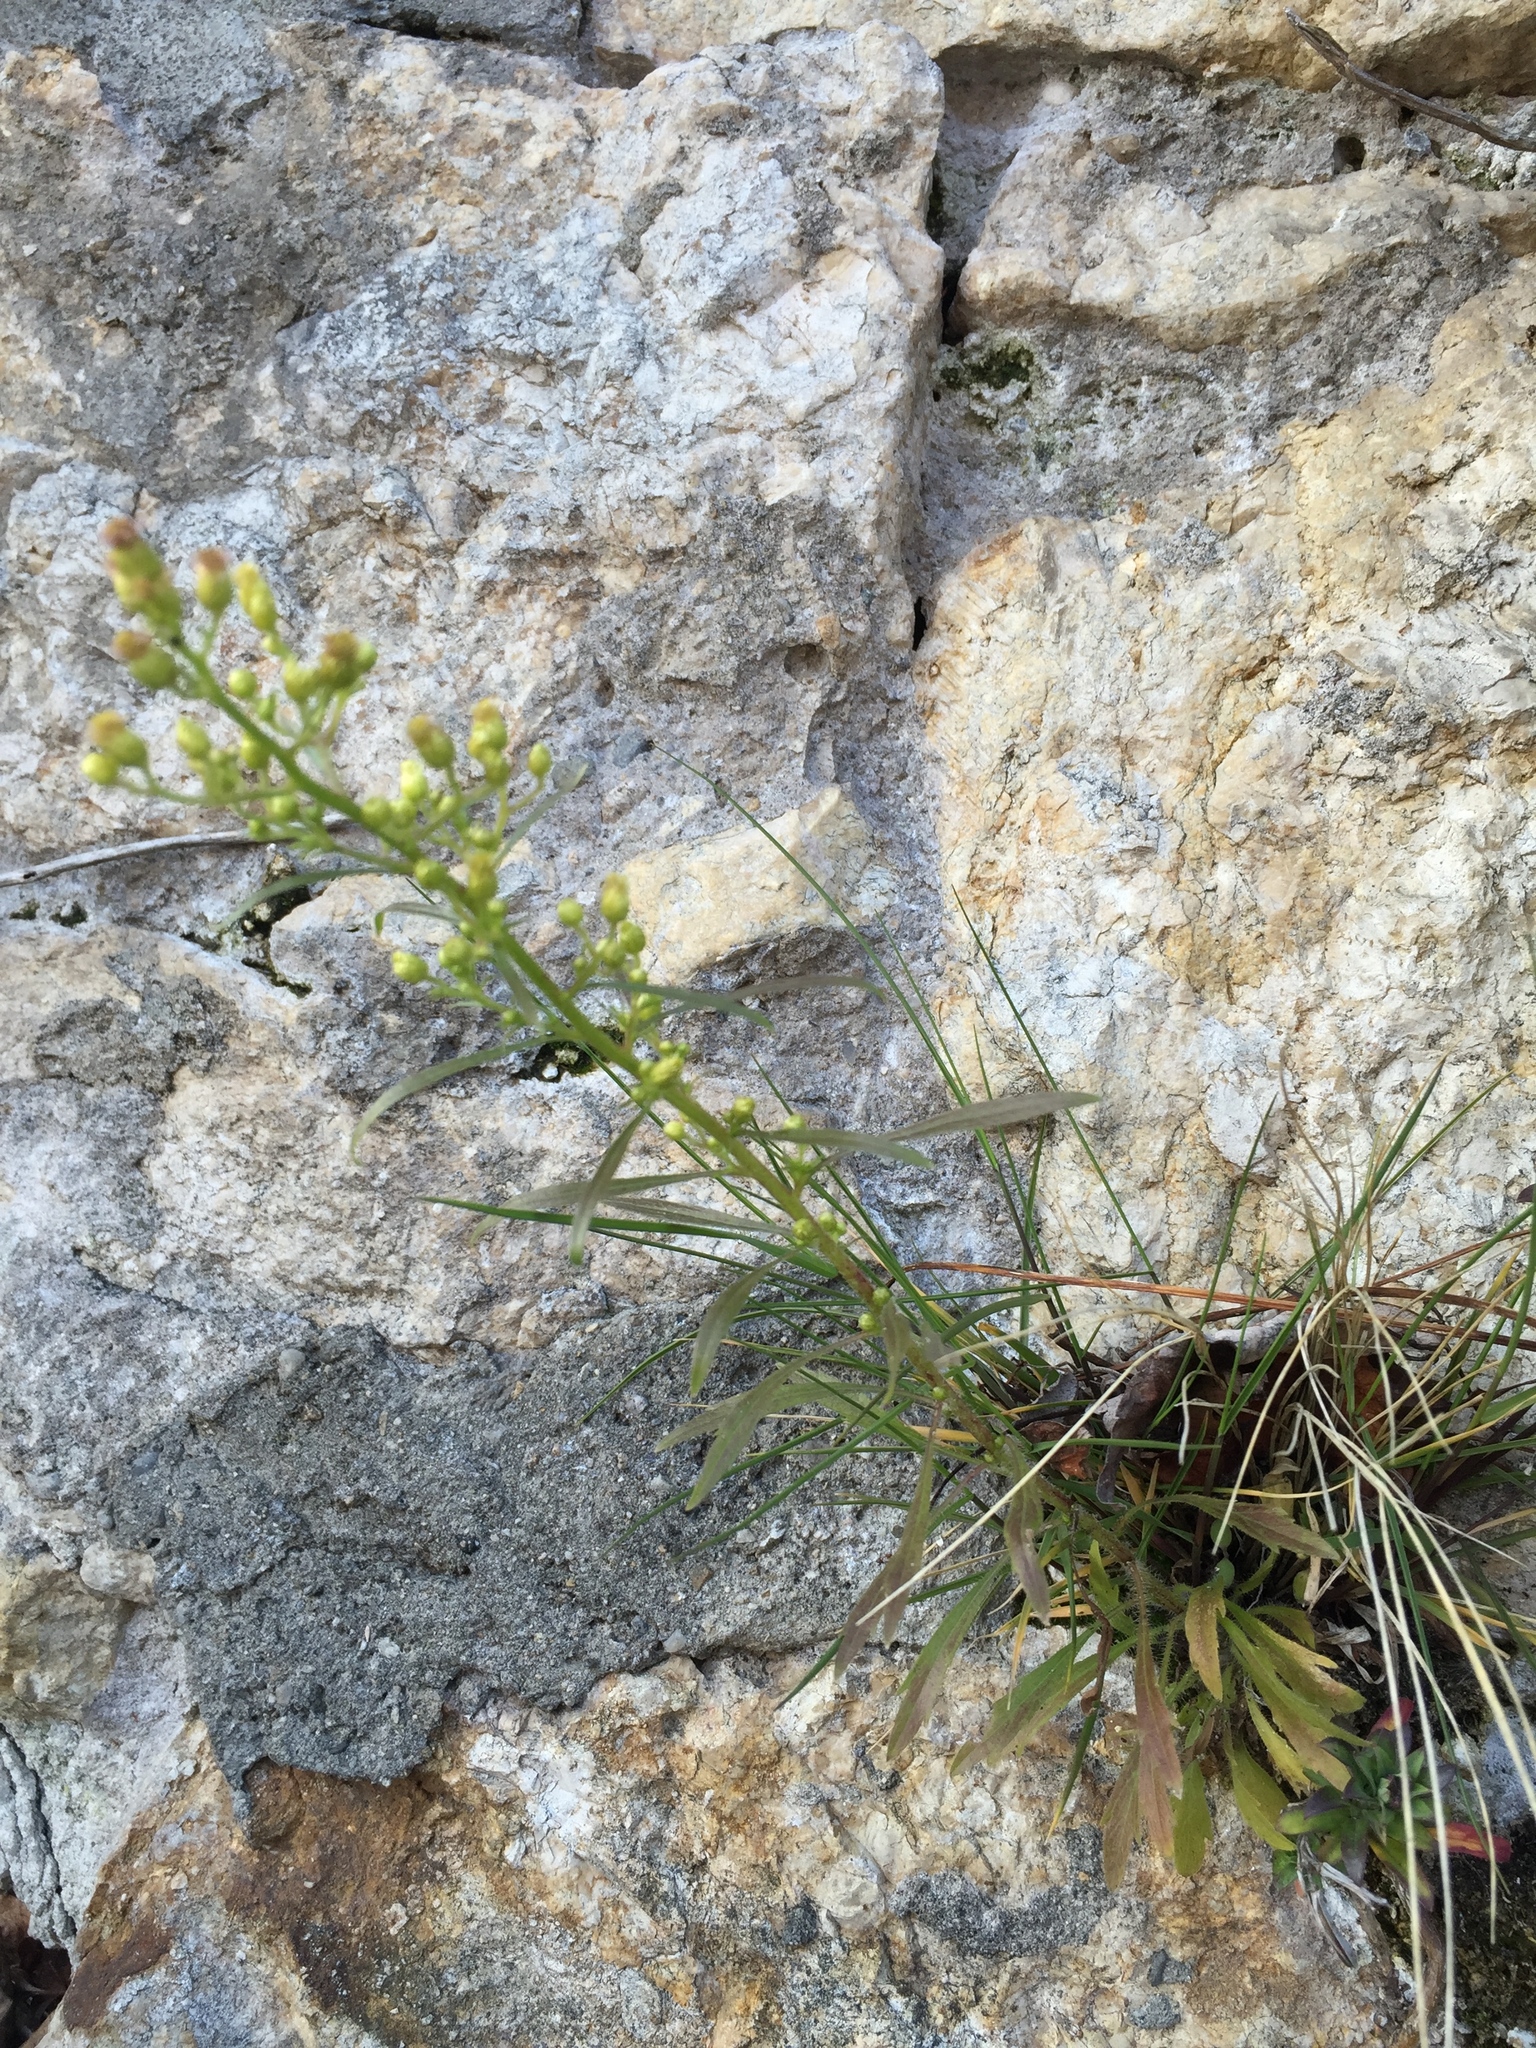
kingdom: Plantae
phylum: Tracheophyta
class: Magnoliopsida
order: Asterales
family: Asteraceae
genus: Erigeron
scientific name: Erigeron canadensis
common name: Canadian fleabane
